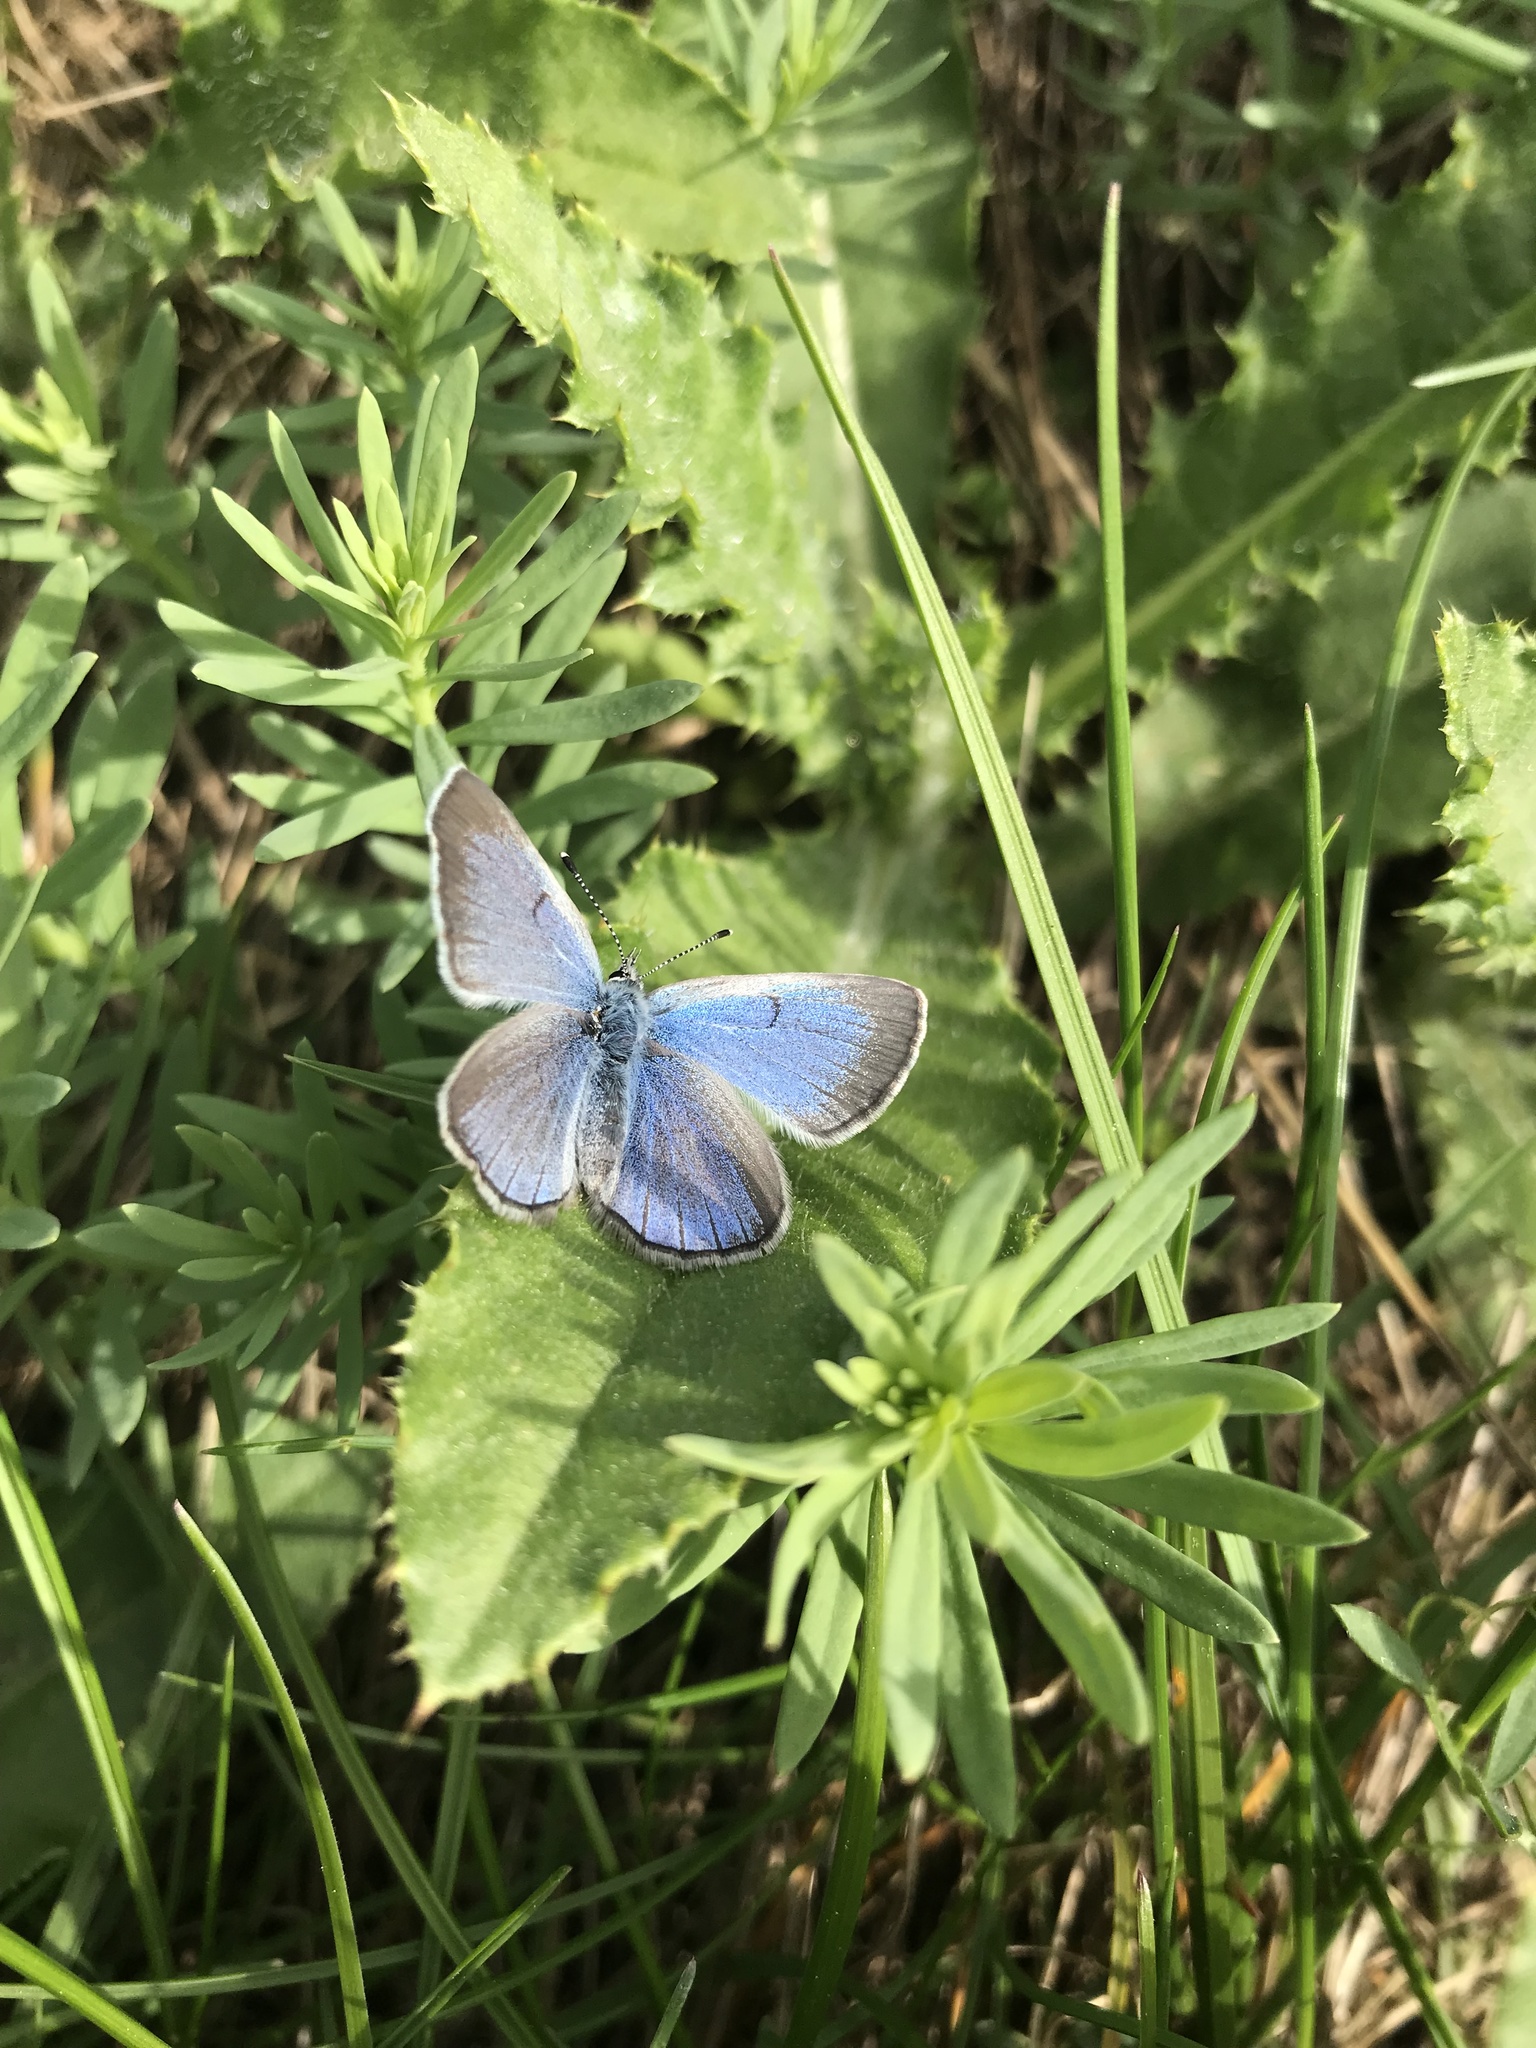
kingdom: Animalia
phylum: Arthropoda
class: Insecta
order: Lepidoptera
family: Lycaenidae
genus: Glaucopsyche
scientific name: Glaucopsyche lygdamus
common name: Silvery blue
